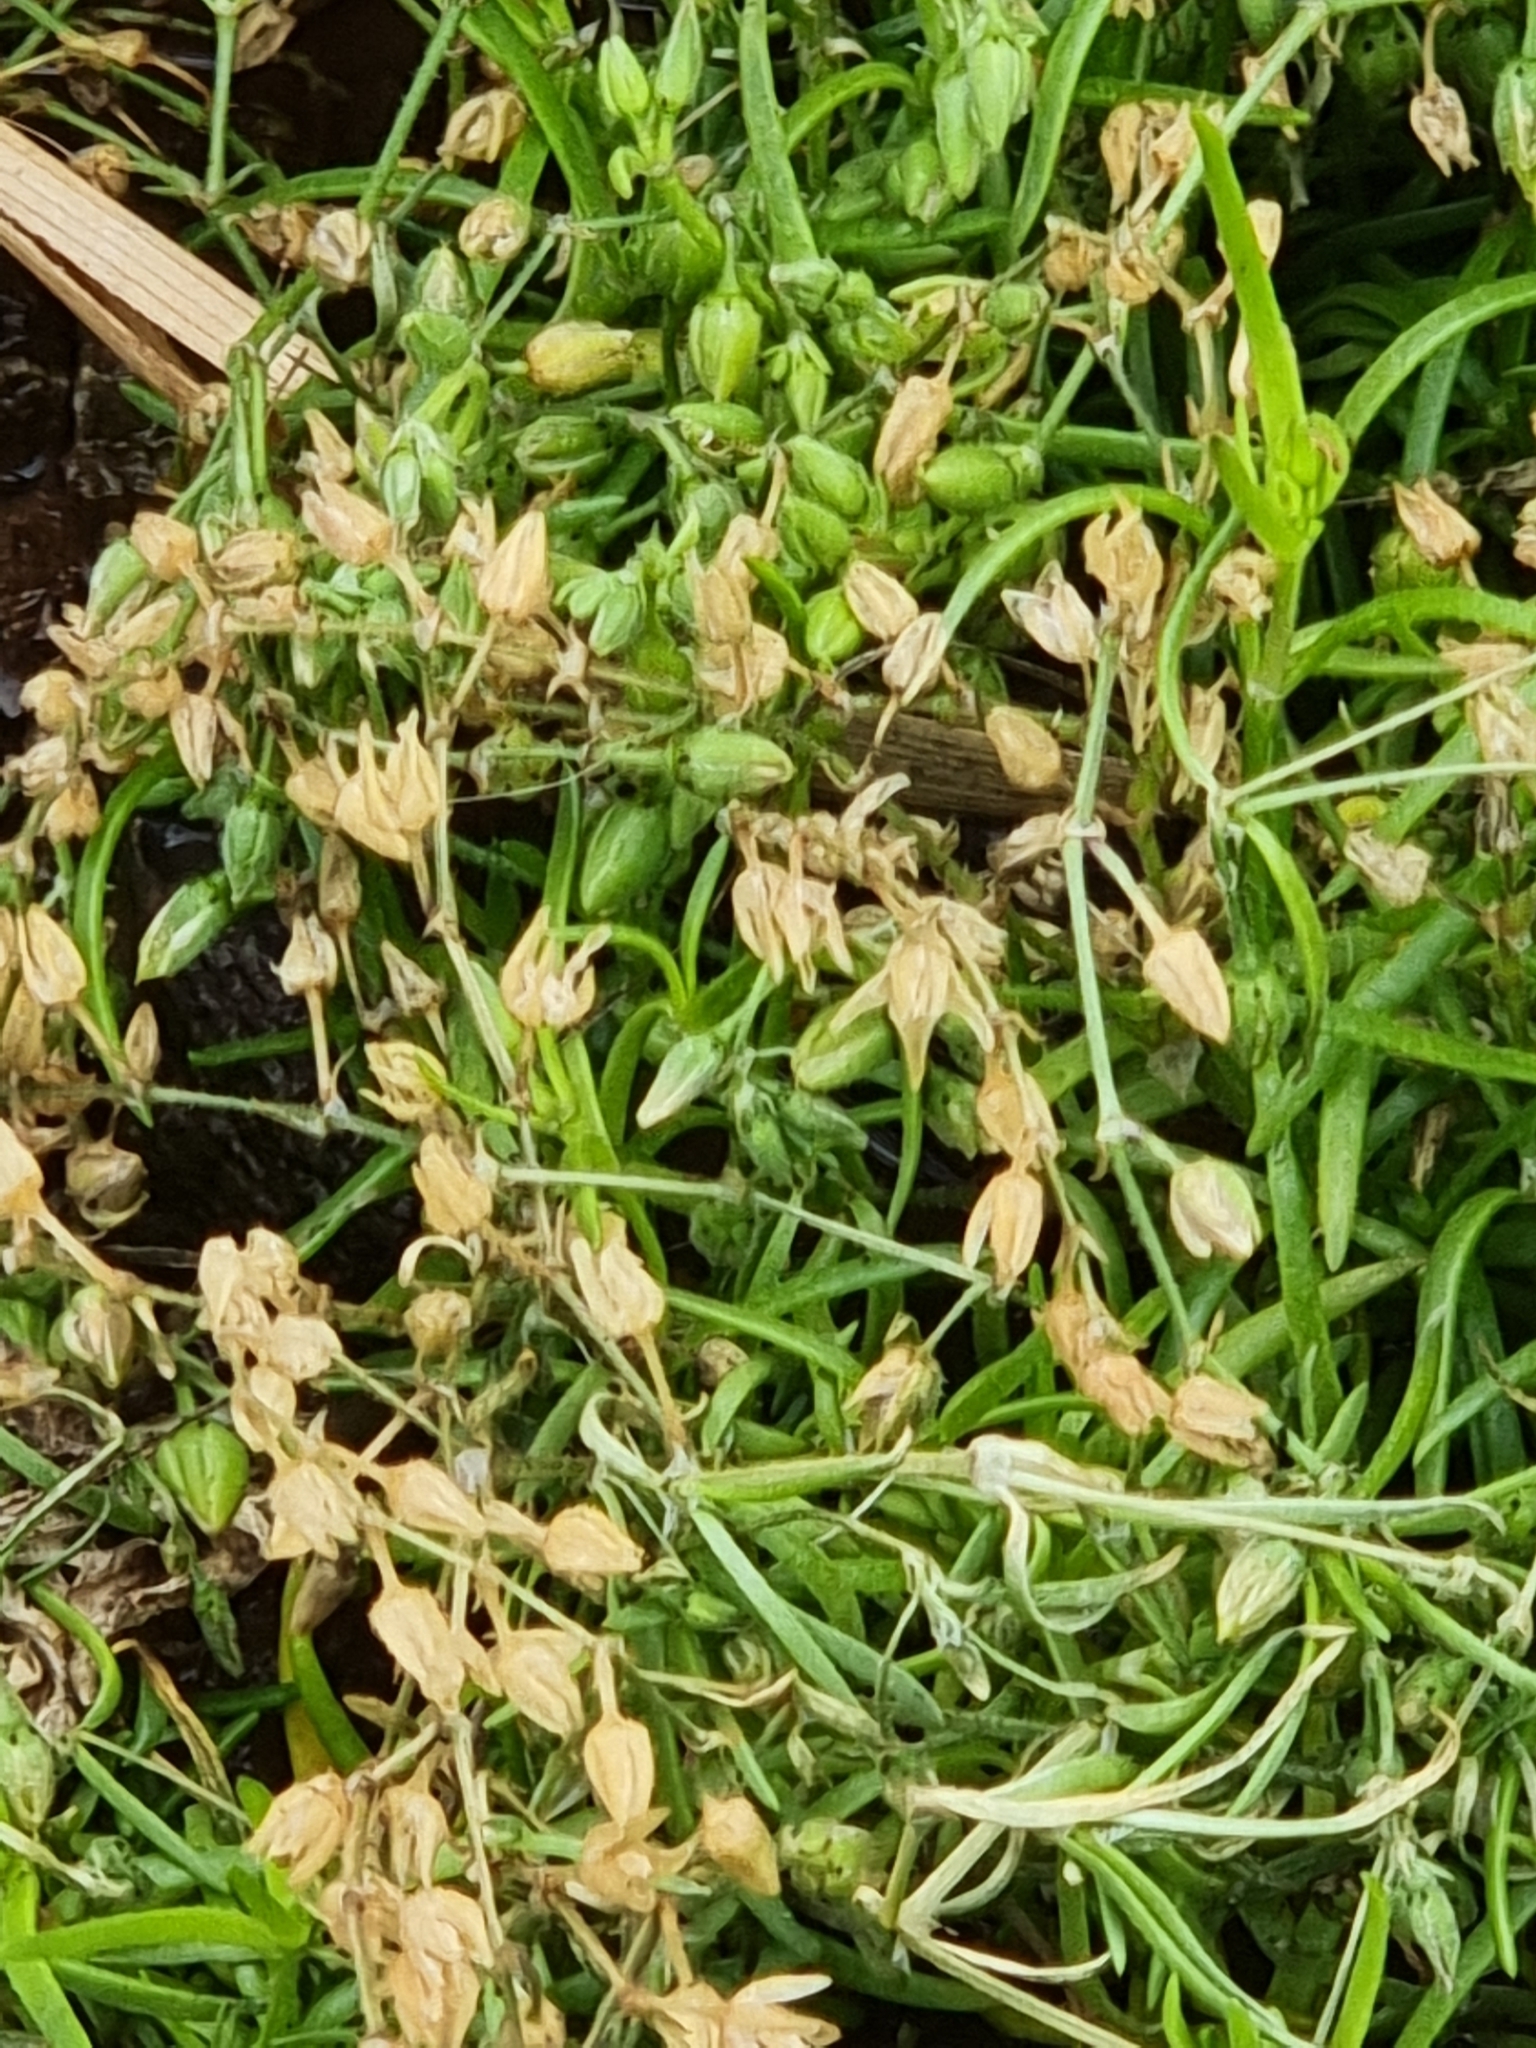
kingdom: Plantae
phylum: Tracheophyta
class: Magnoliopsida
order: Caryophyllales
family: Caryophyllaceae
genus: Sagina
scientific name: Sagina procumbens
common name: Procumbent pearlwort
